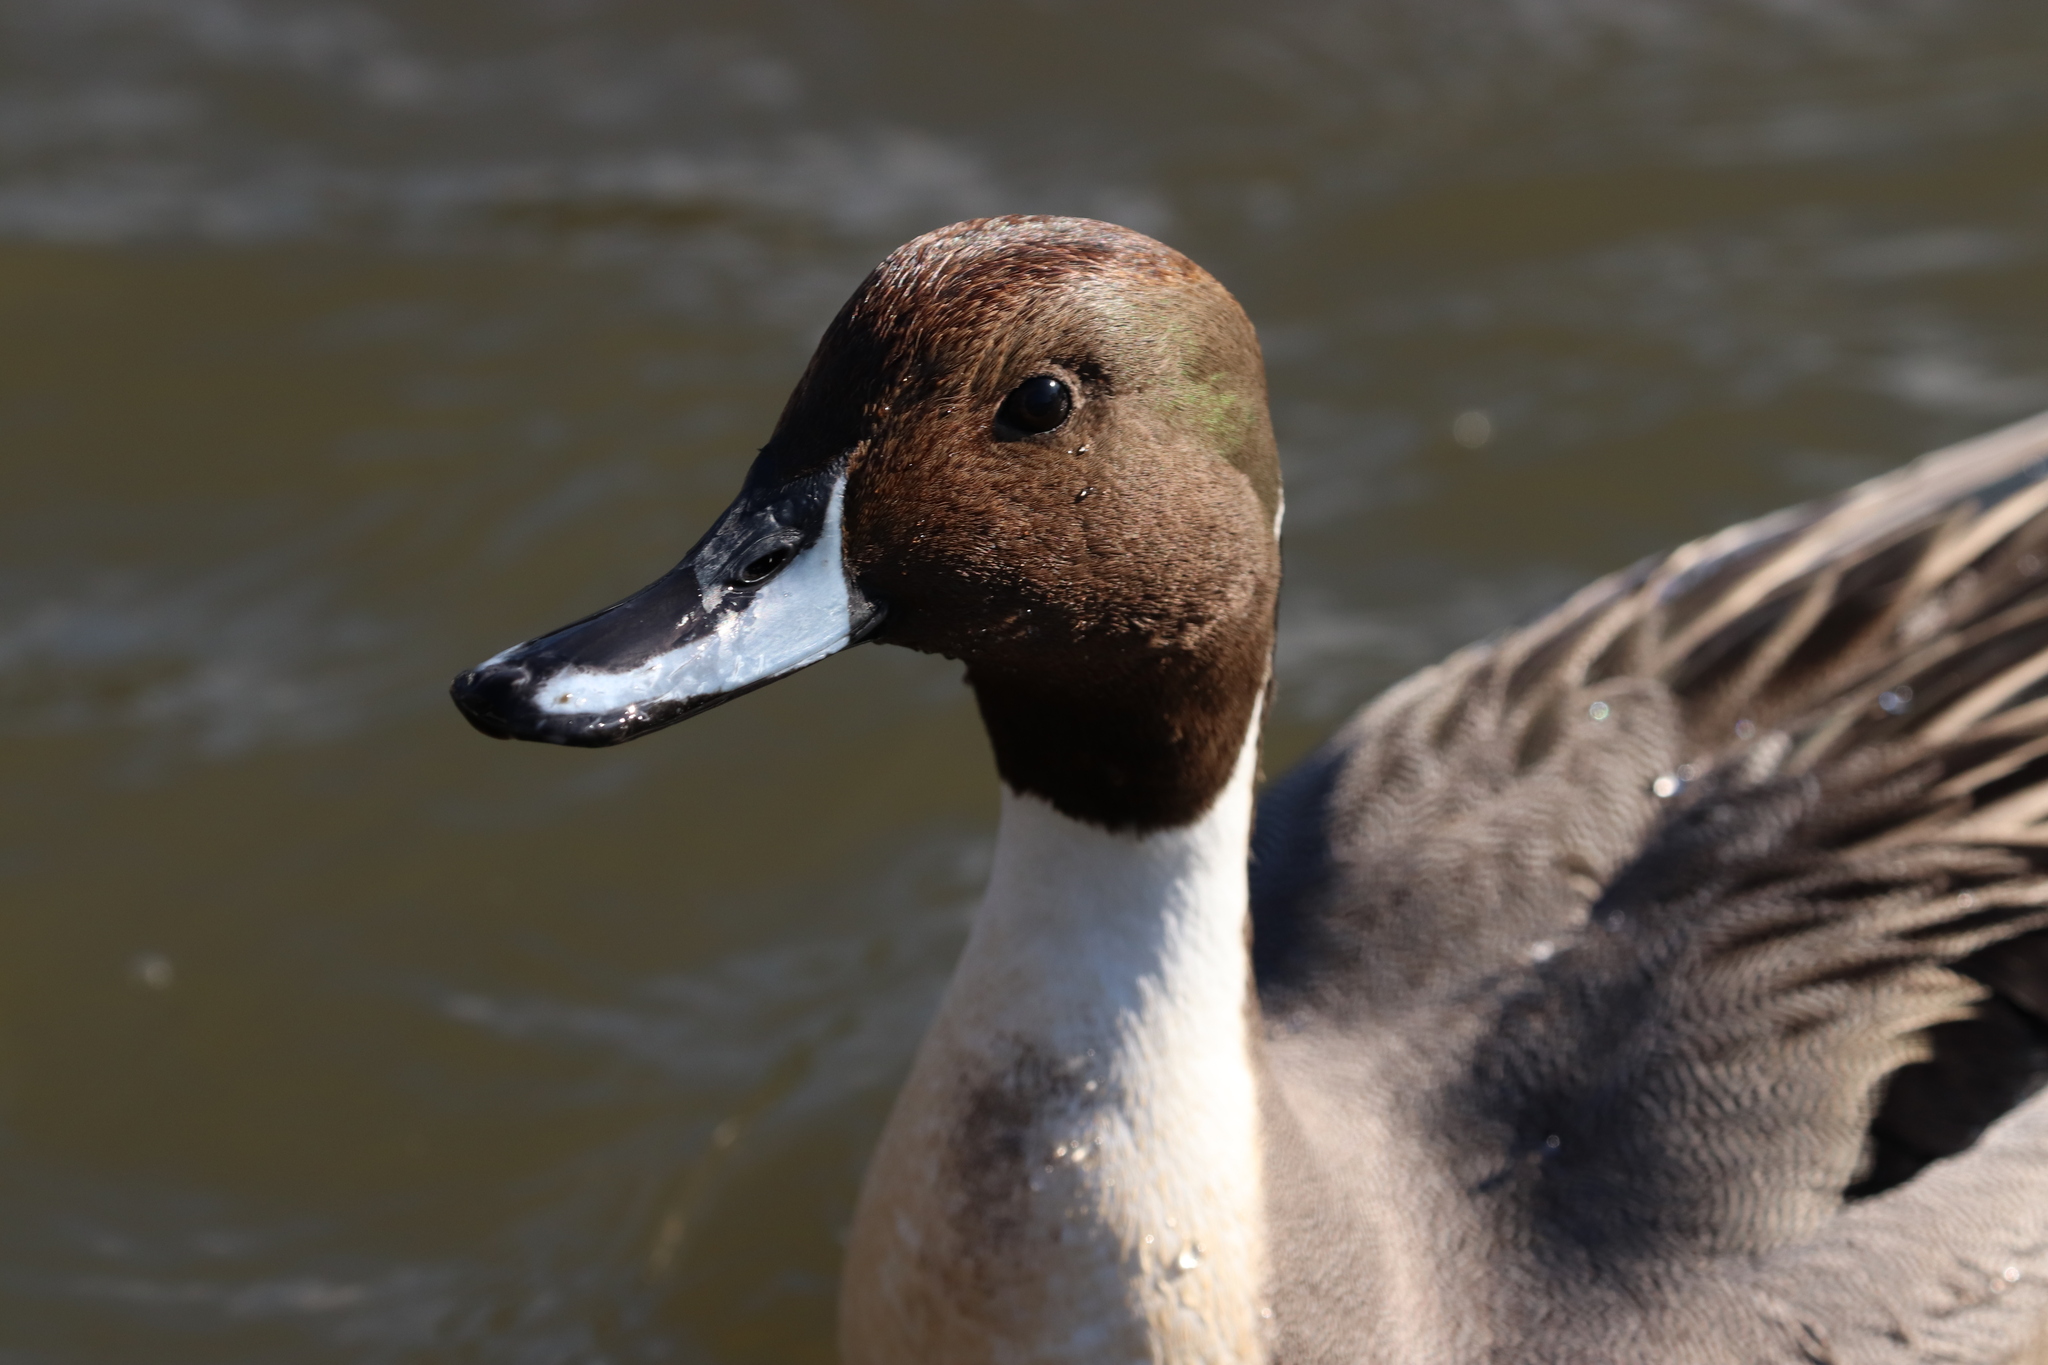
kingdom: Animalia
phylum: Chordata
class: Aves
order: Anseriformes
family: Anatidae
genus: Anas
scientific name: Anas acuta
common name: Northern pintail
